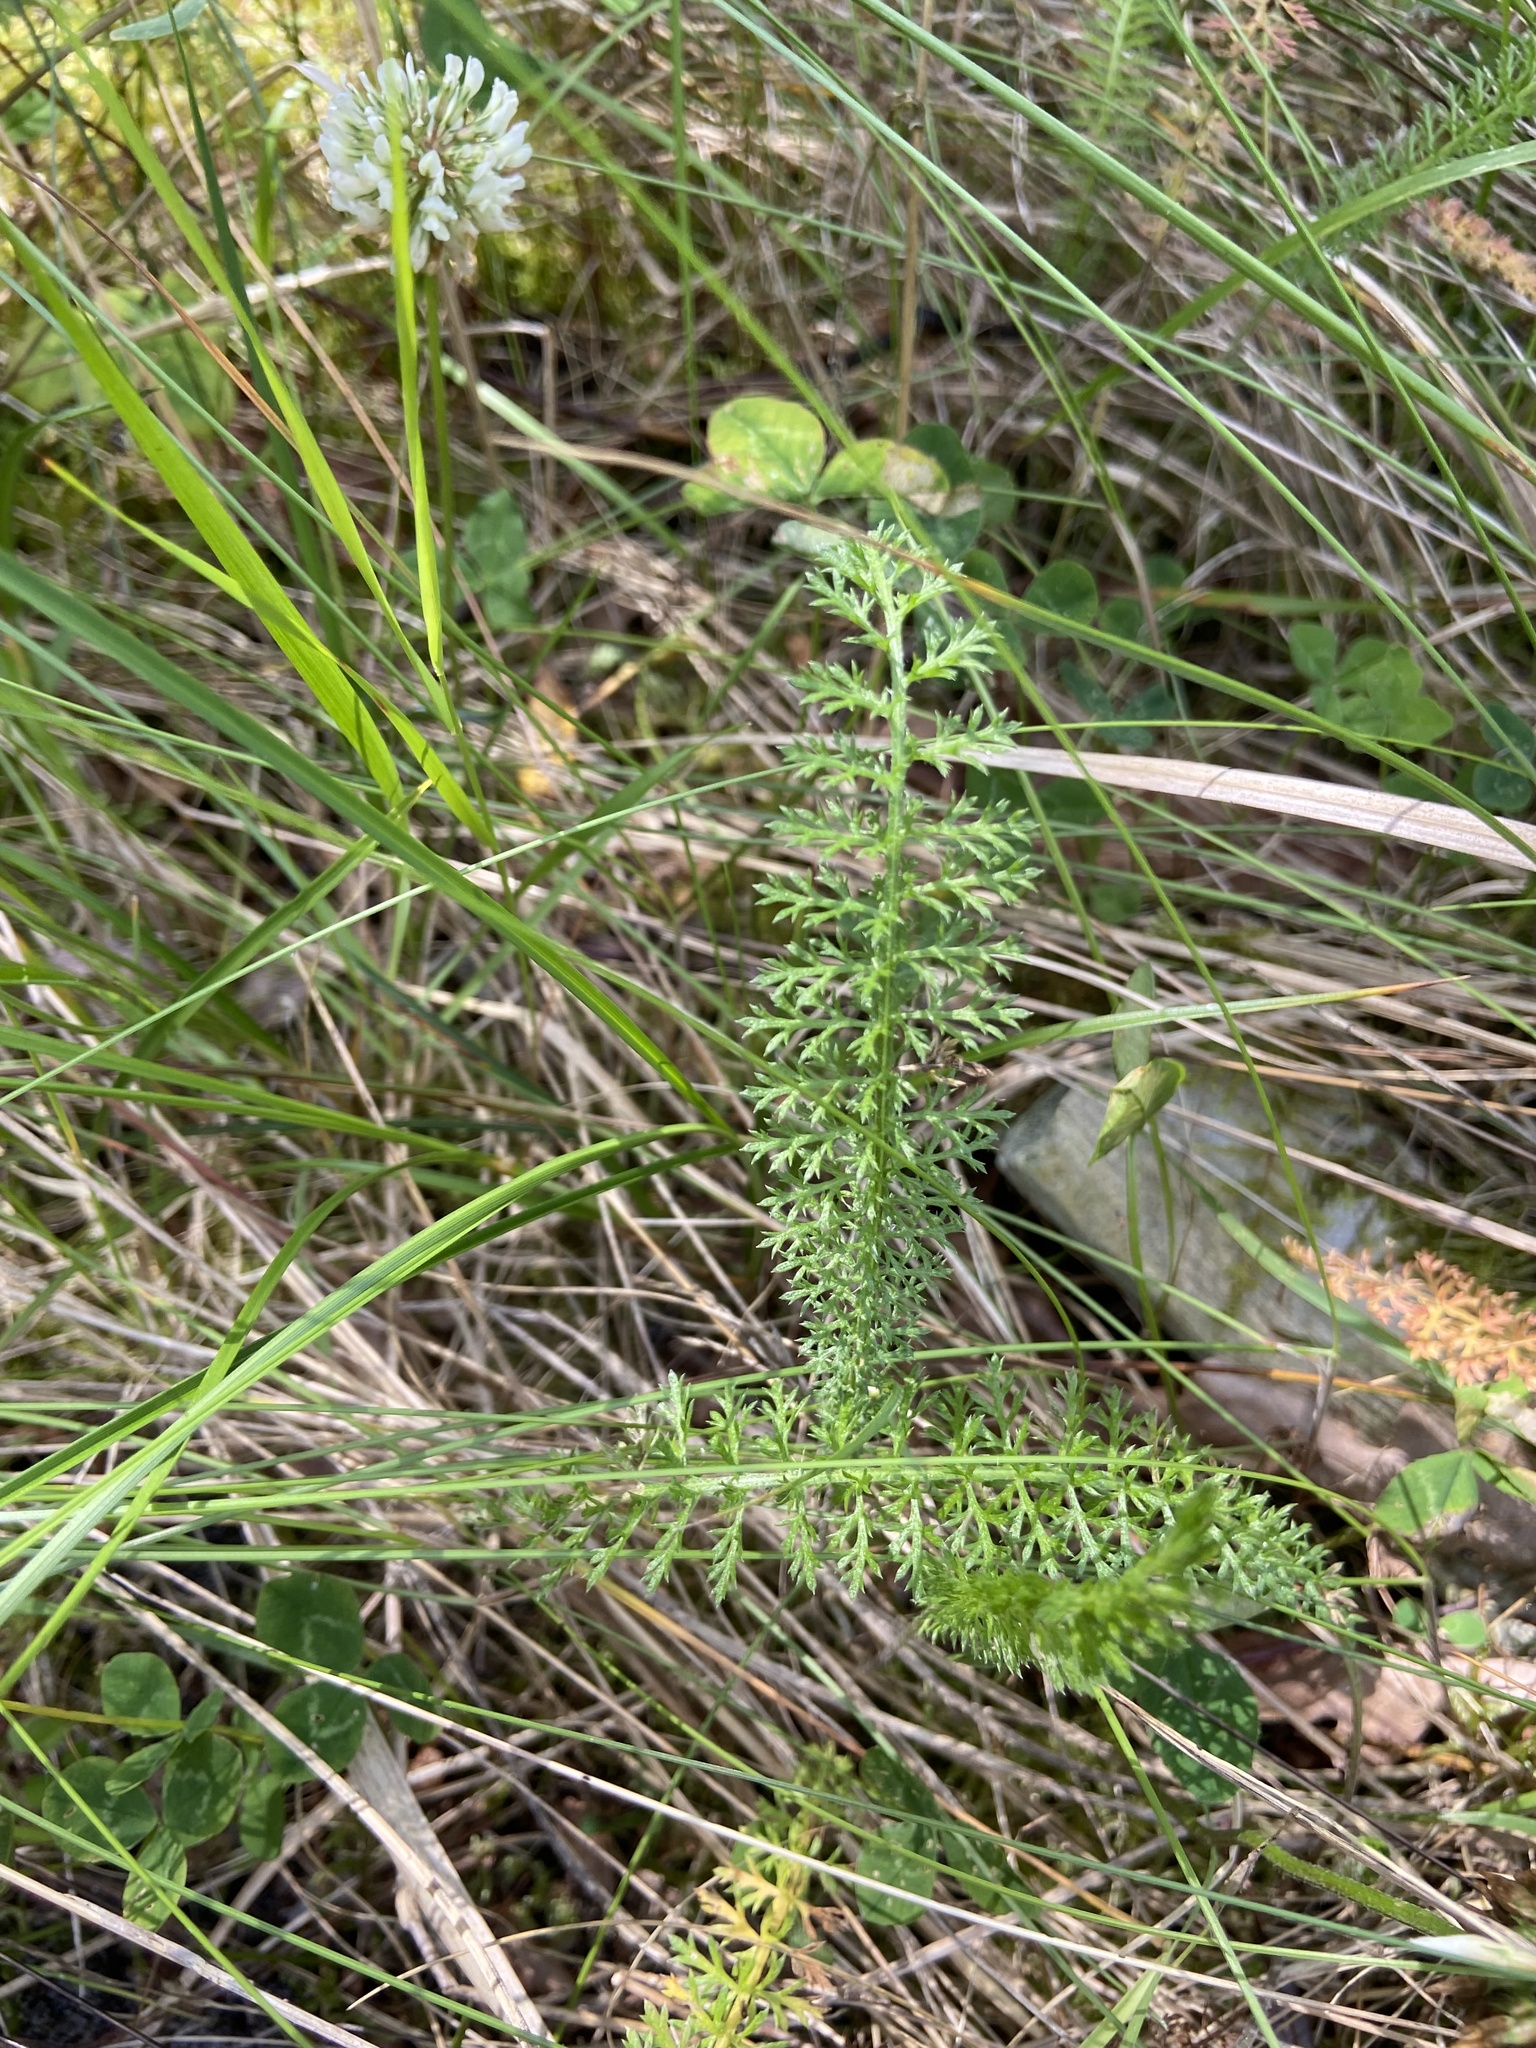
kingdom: Plantae
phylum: Tracheophyta
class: Magnoliopsida
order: Asterales
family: Asteraceae
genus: Achillea
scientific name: Achillea millefolium
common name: Yarrow
